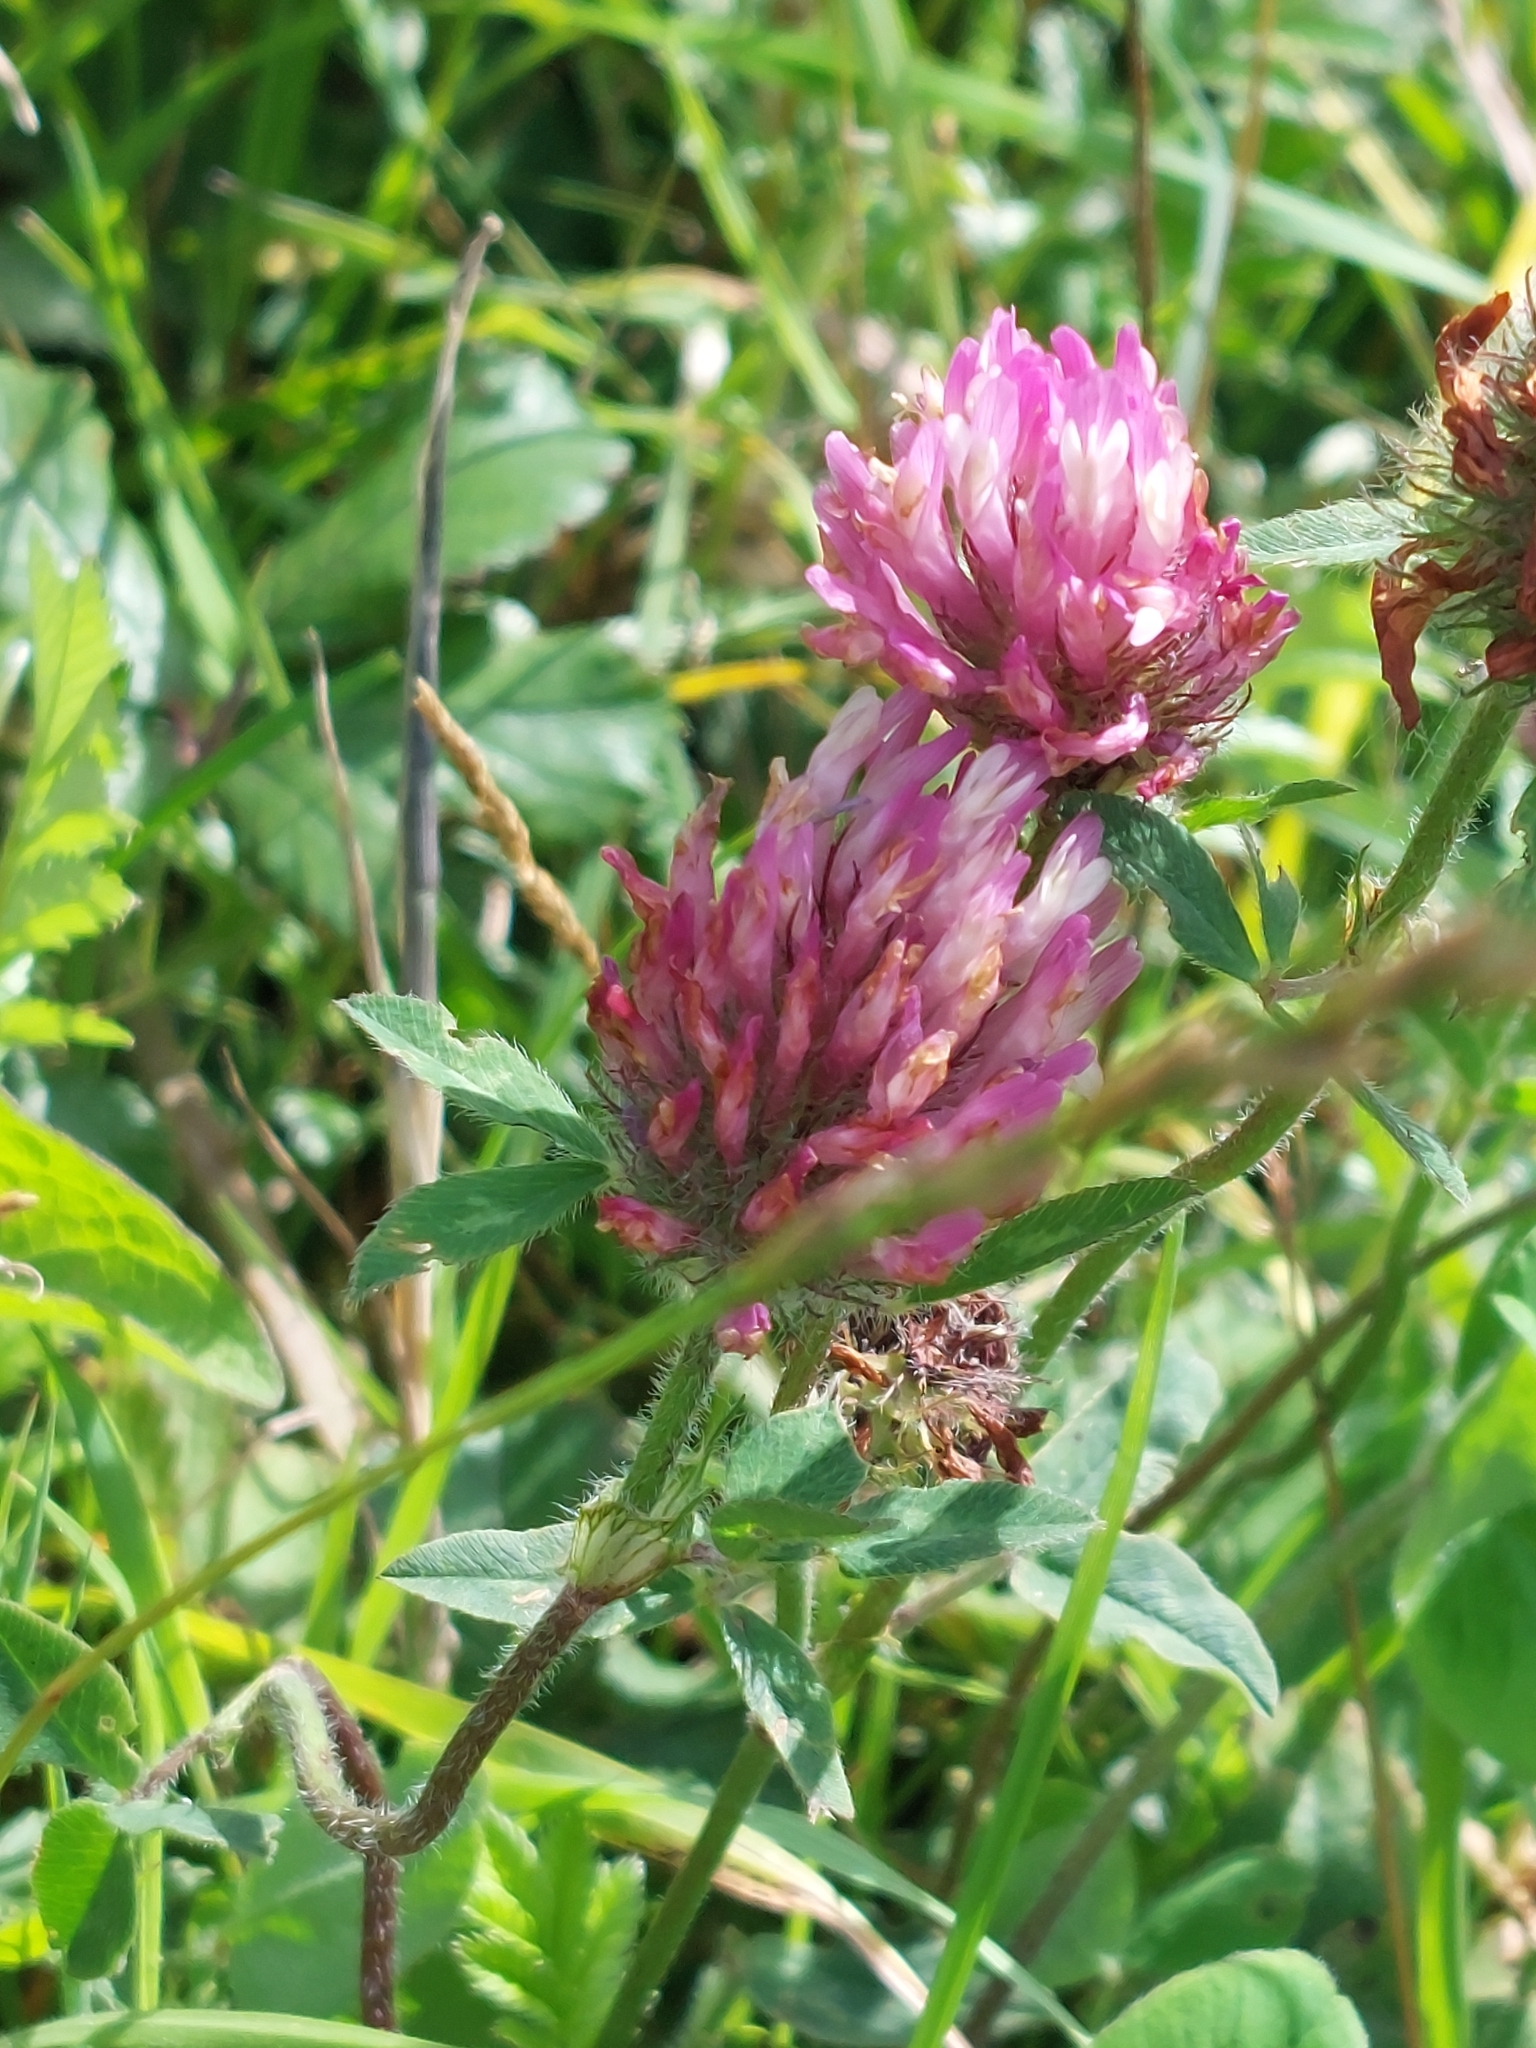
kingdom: Plantae
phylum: Tracheophyta
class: Magnoliopsida
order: Fabales
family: Fabaceae
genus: Trifolium
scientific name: Trifolium pratense
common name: Red clover
